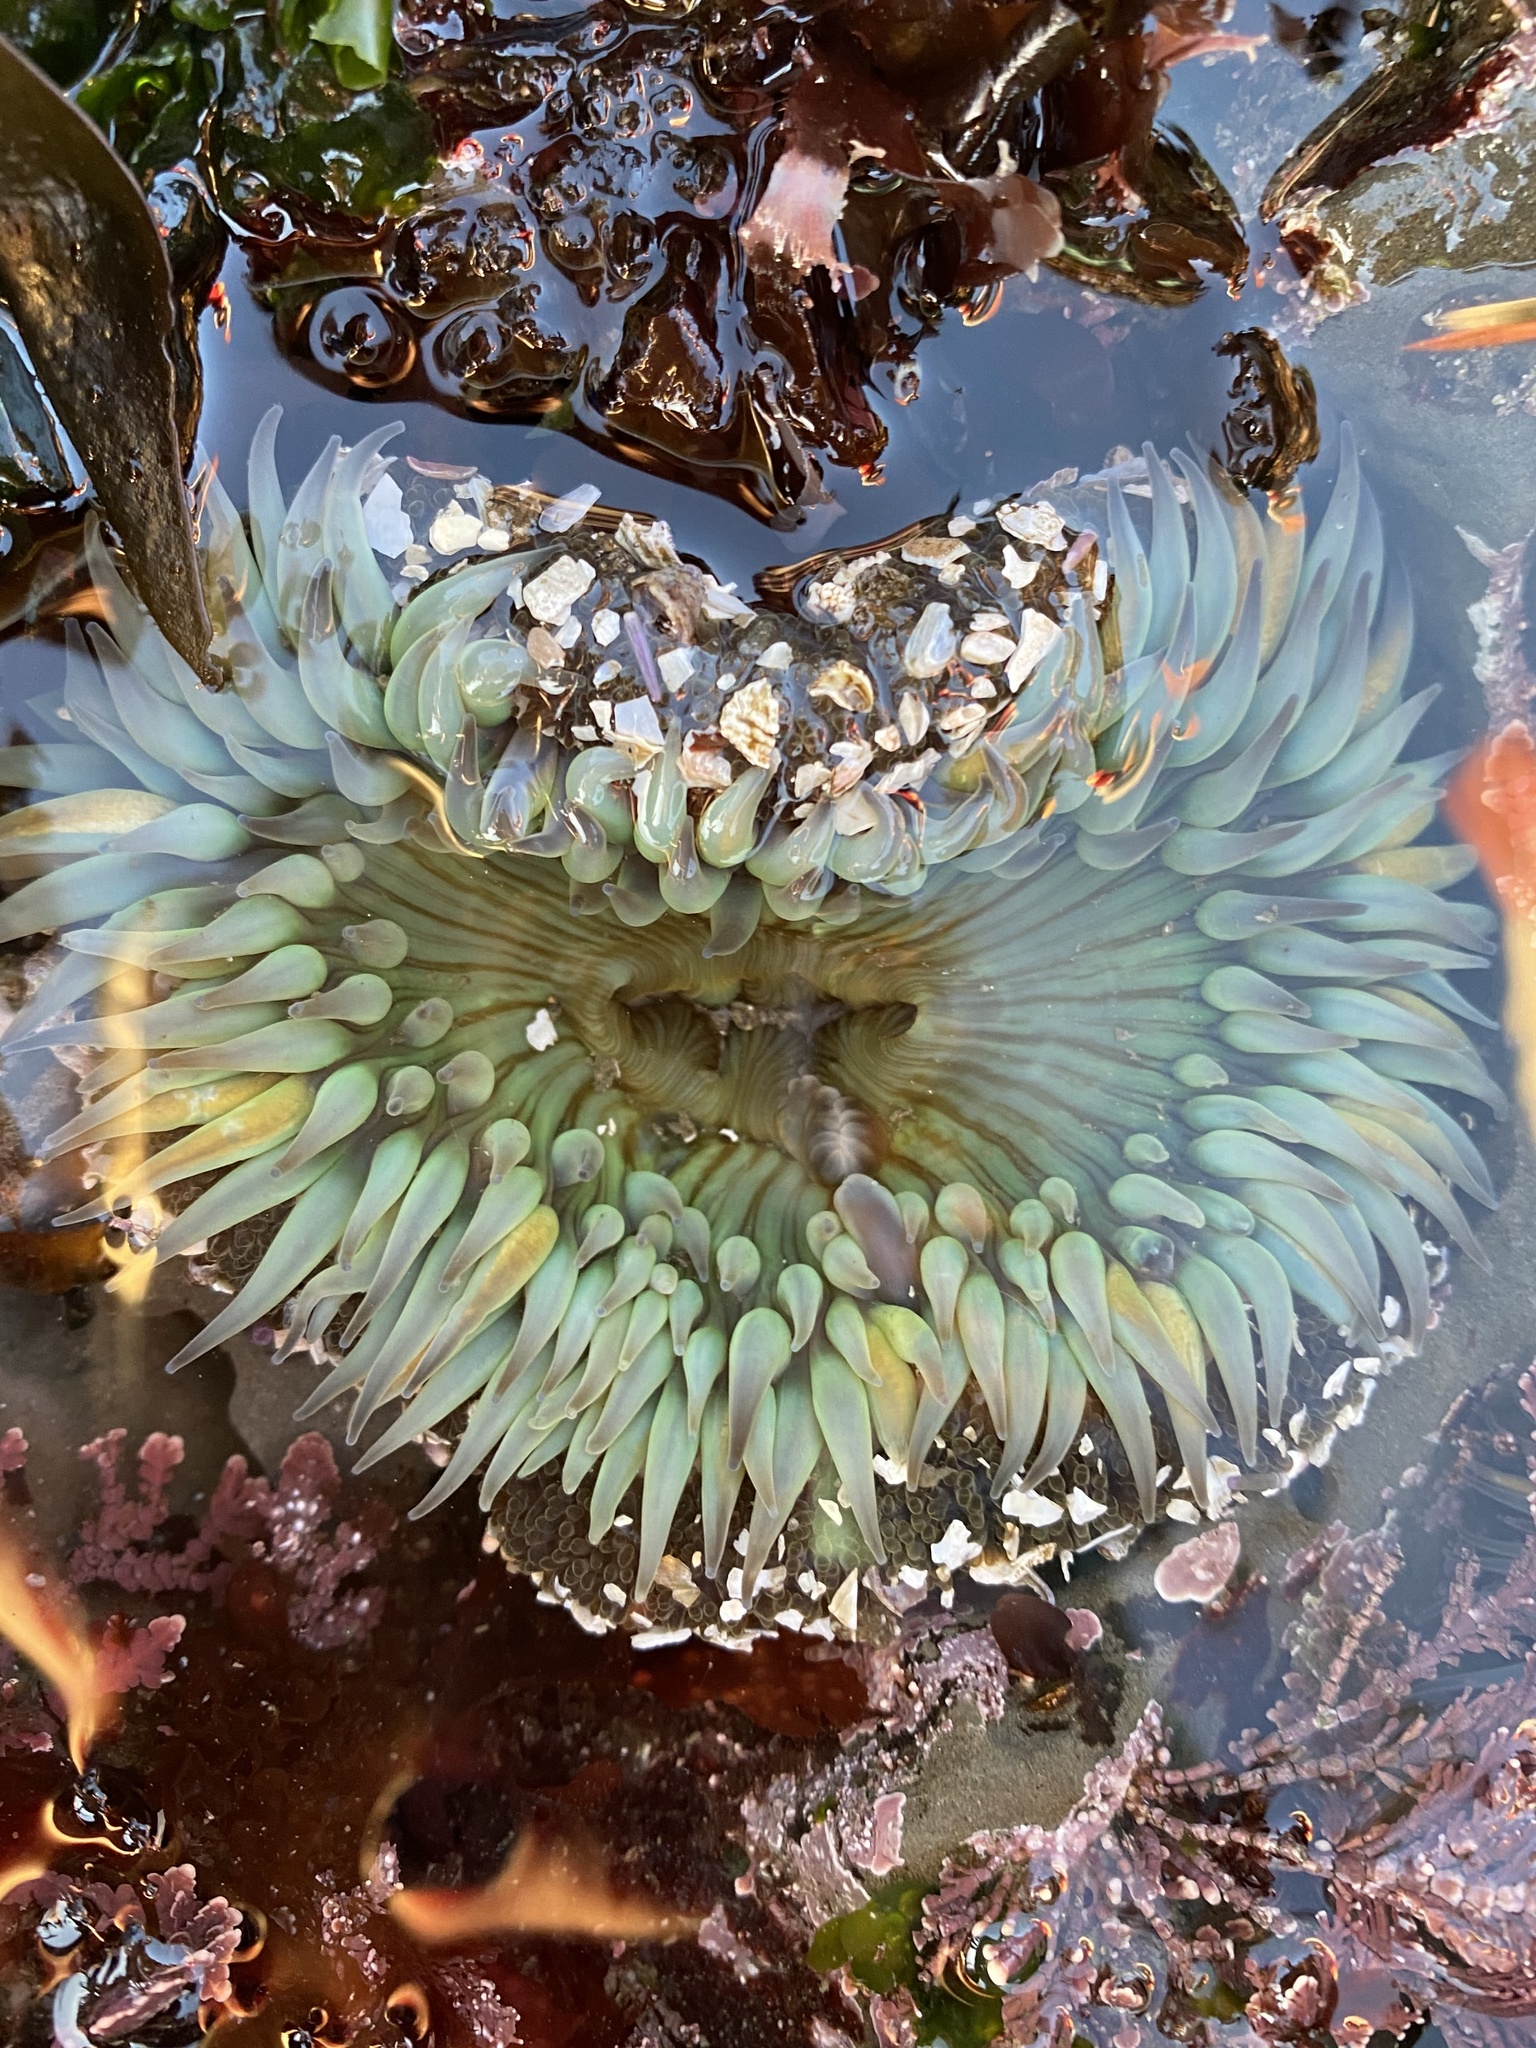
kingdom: Animalia
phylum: Cnidaria
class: Anthozoa
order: Actiniaria
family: Actiniidae
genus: Anthopleura
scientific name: Anthopleura sola
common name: Sun anemone
